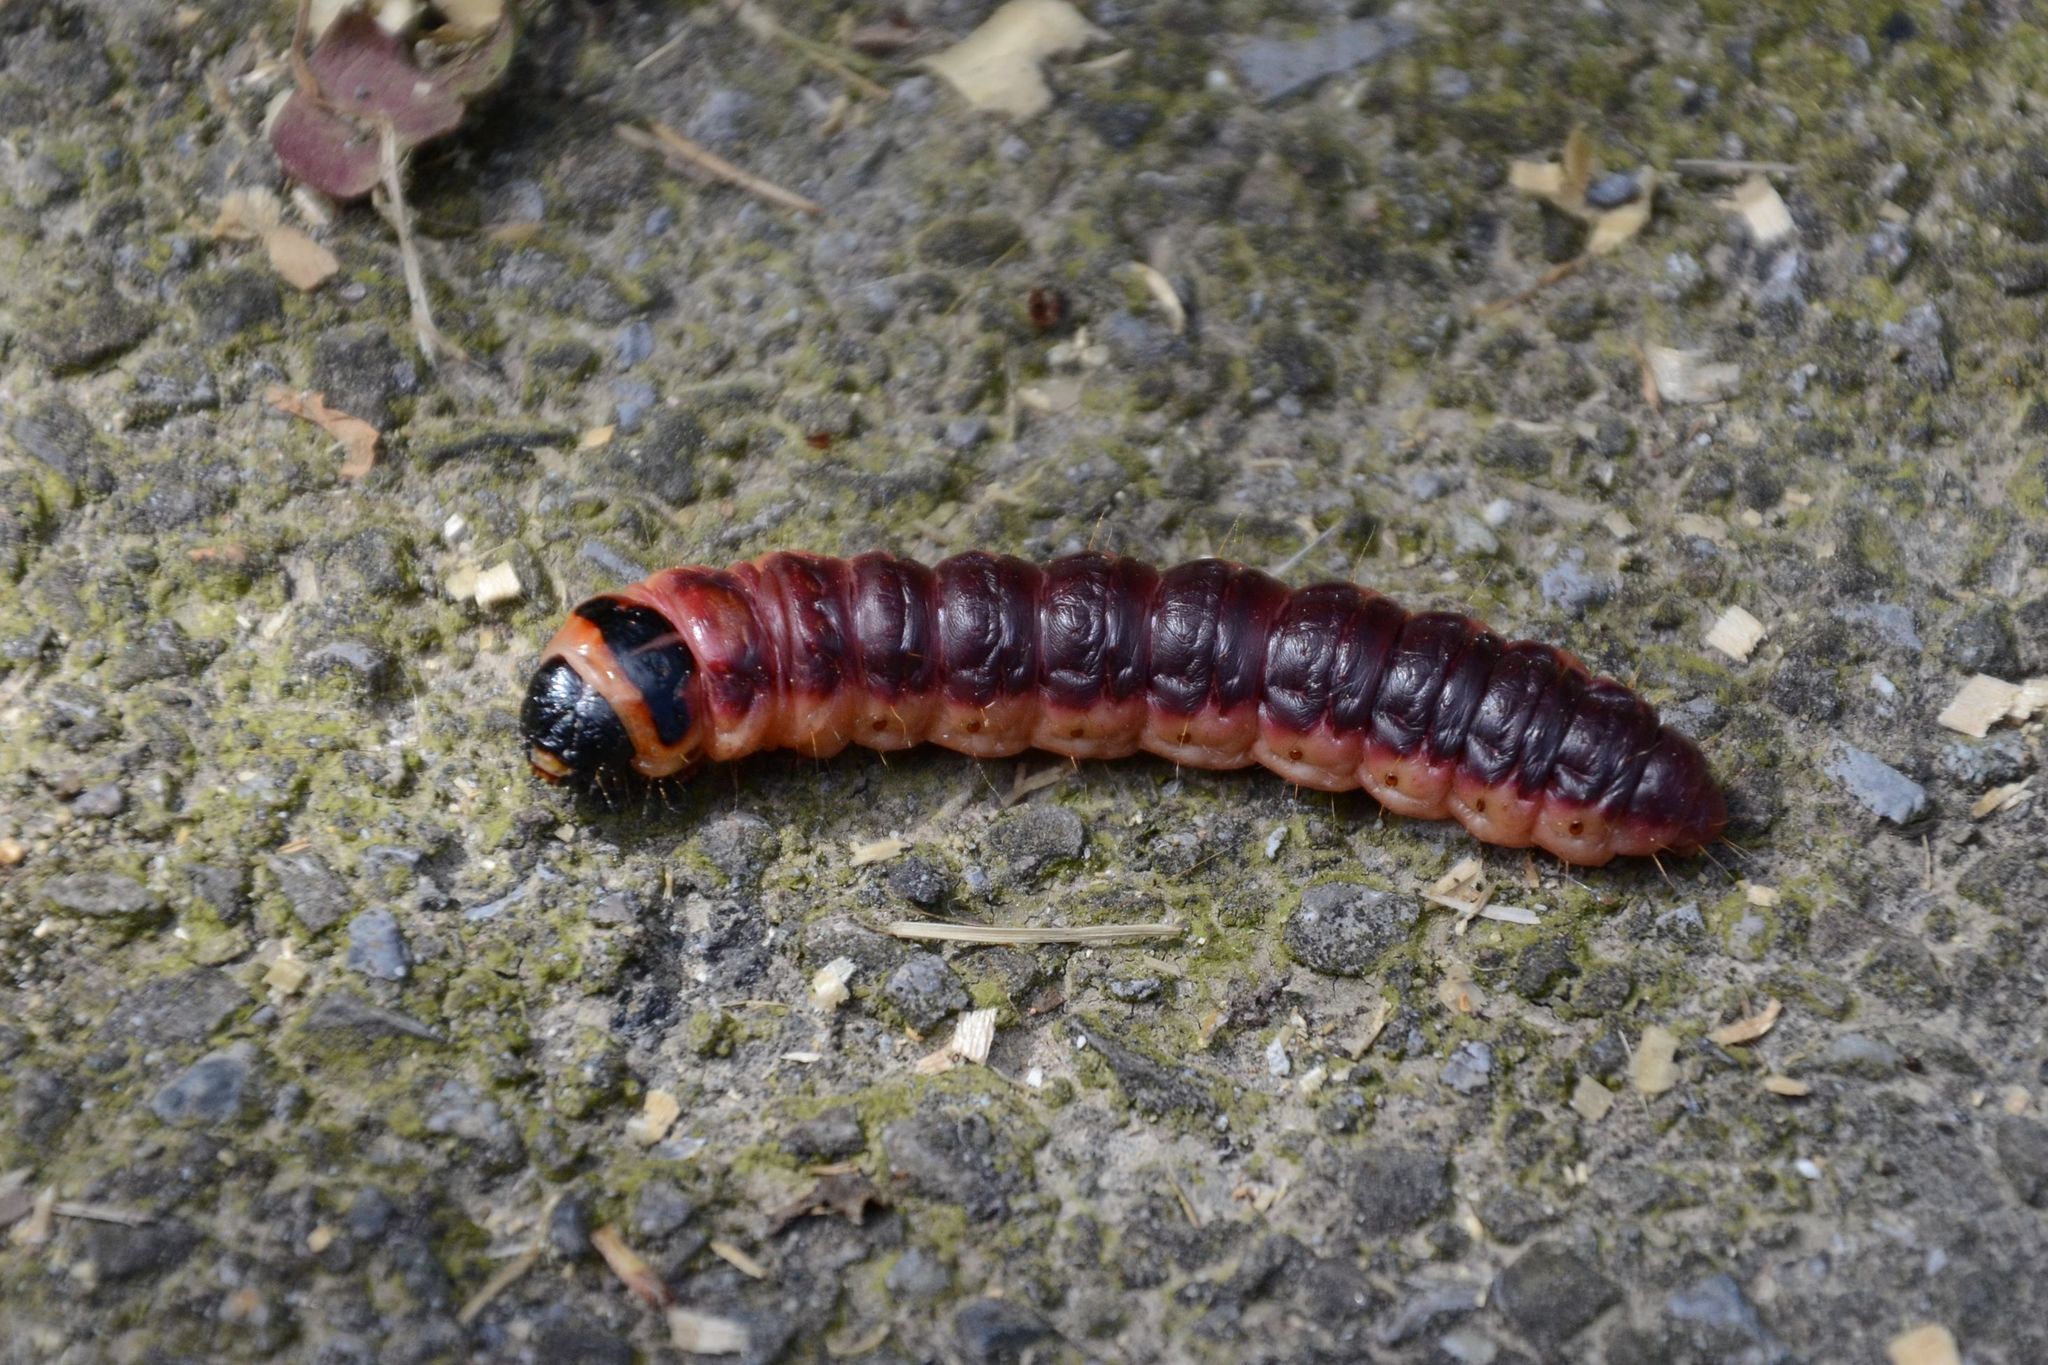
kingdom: Animalia
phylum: Arthropoda
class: Insecta
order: Lepidoptera
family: Cossidae
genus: Cossus
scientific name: Cossus cossus
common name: Goat moth
